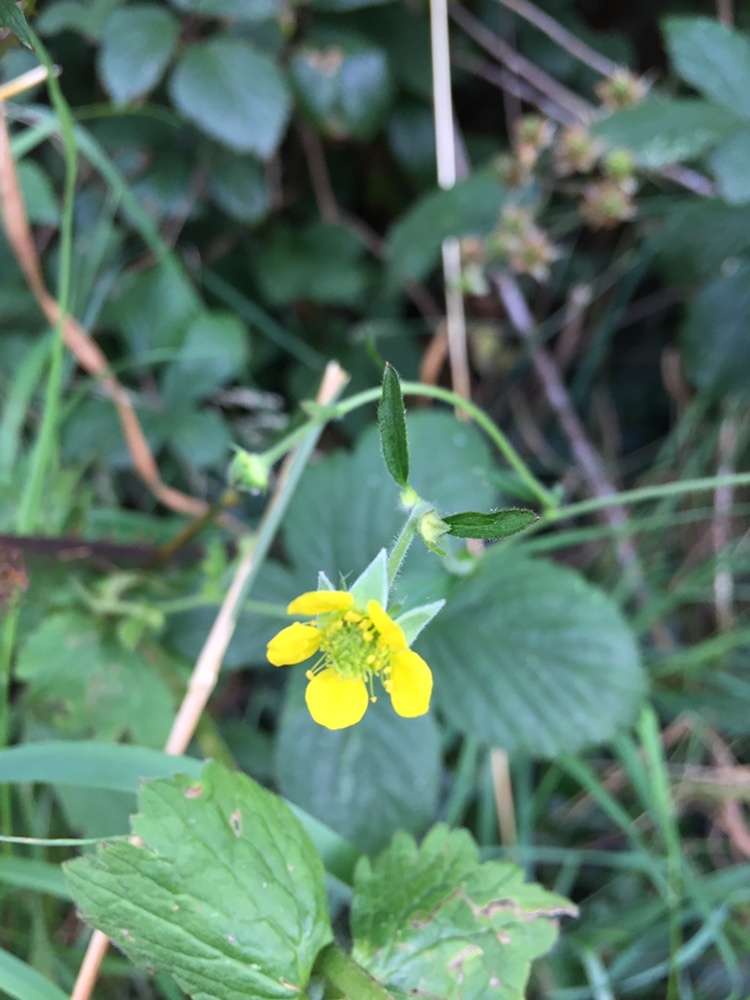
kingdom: Plantae
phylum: Tracheophyta
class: Magnoliopsida
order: Rosales
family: Rosaceae
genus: Geum
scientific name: Geum urbanum
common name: Wood avens
